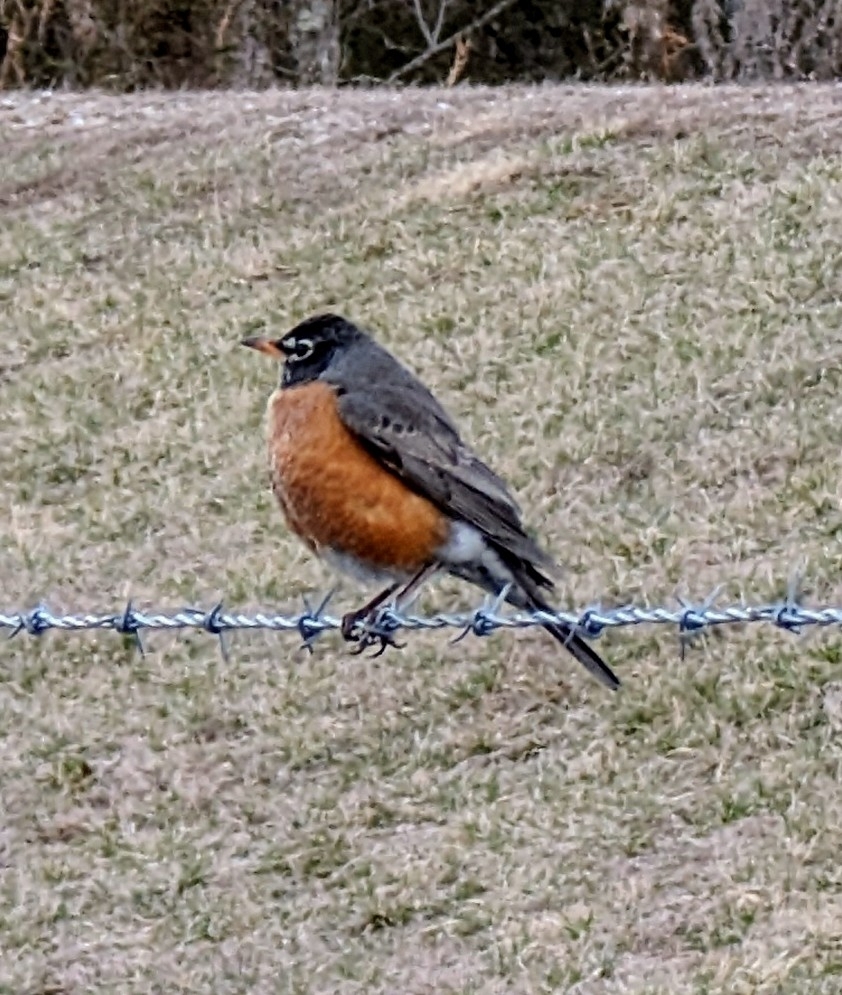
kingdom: Animalia
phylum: Chordata
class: Aves
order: Passeriformes
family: Turdidae
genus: Turdus
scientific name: Turdus migratorius
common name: American robin
